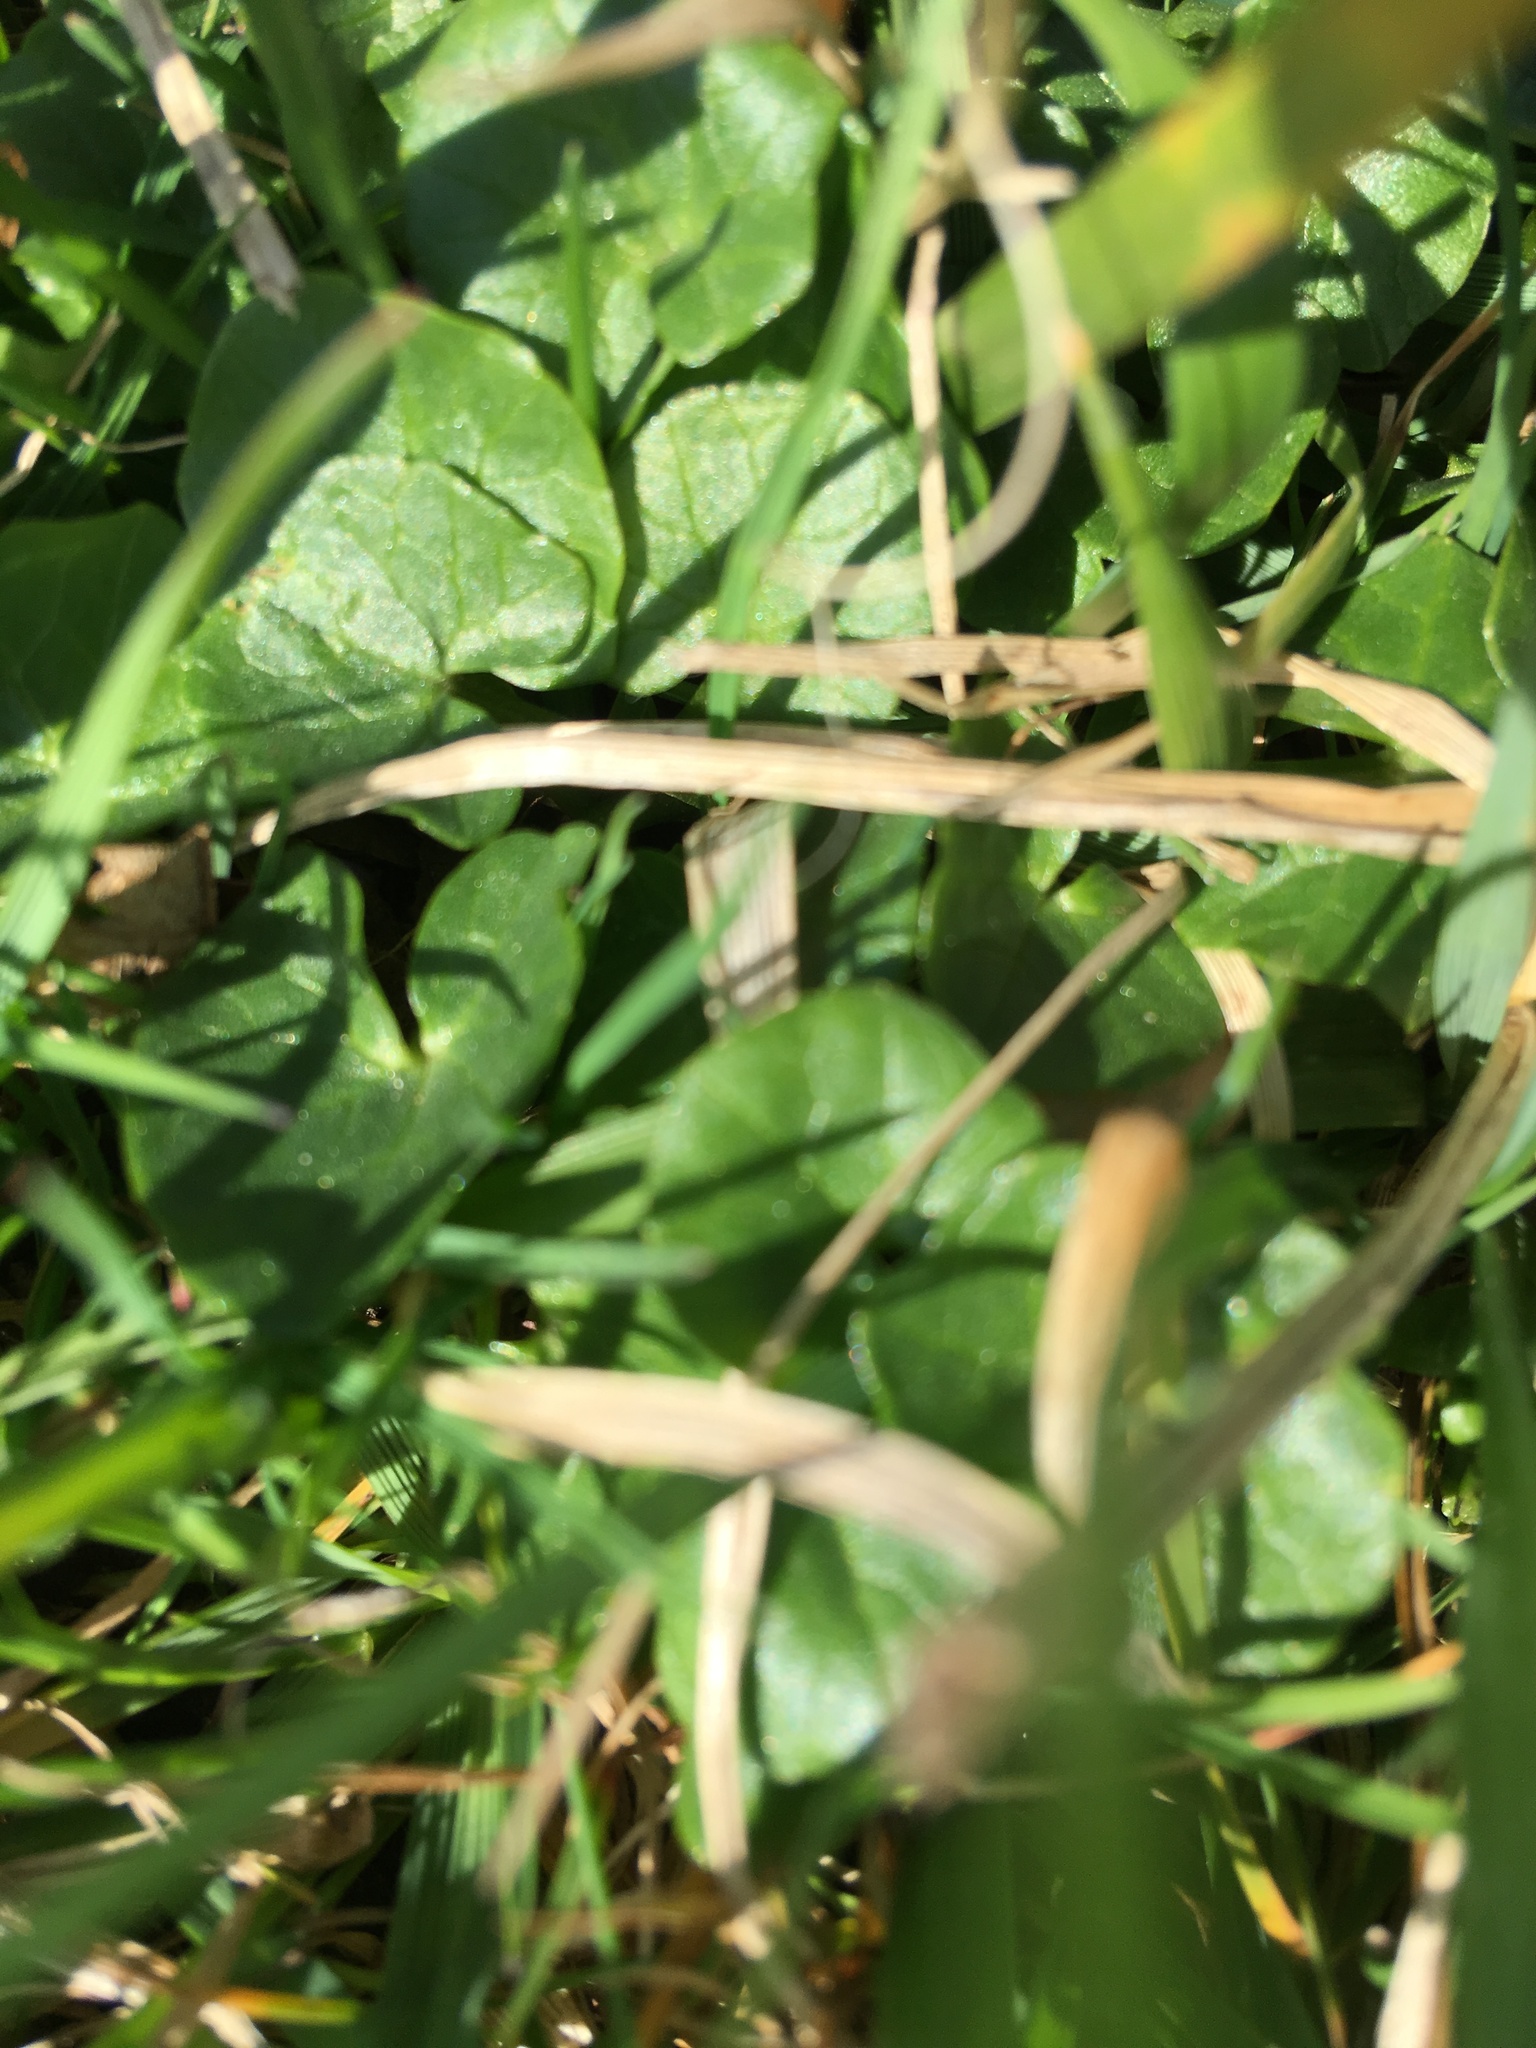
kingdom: Plantae
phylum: Tracheophyta
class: Magnoliopsida
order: Ranunculales
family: Ranunculaceae
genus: Ficaria
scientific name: Ficaria verna
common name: Lesser celandine
